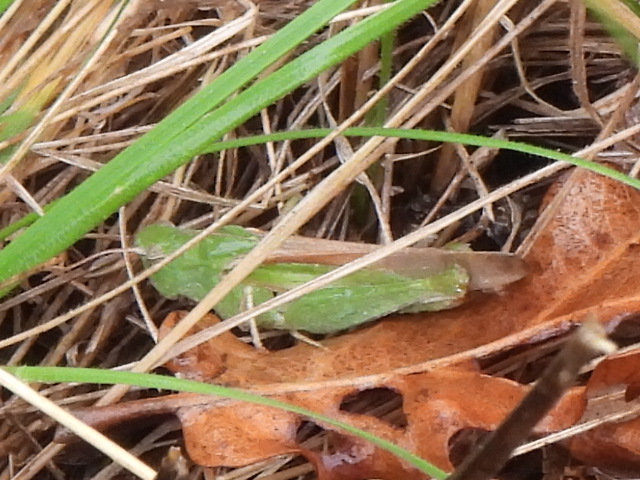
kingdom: Animalia
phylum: Arthropoda
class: Insecta
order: Orthoptera
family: Acrididae
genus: Chortophaga
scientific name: Chortophaga viridifasciata
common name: Green-striped grasshopper
